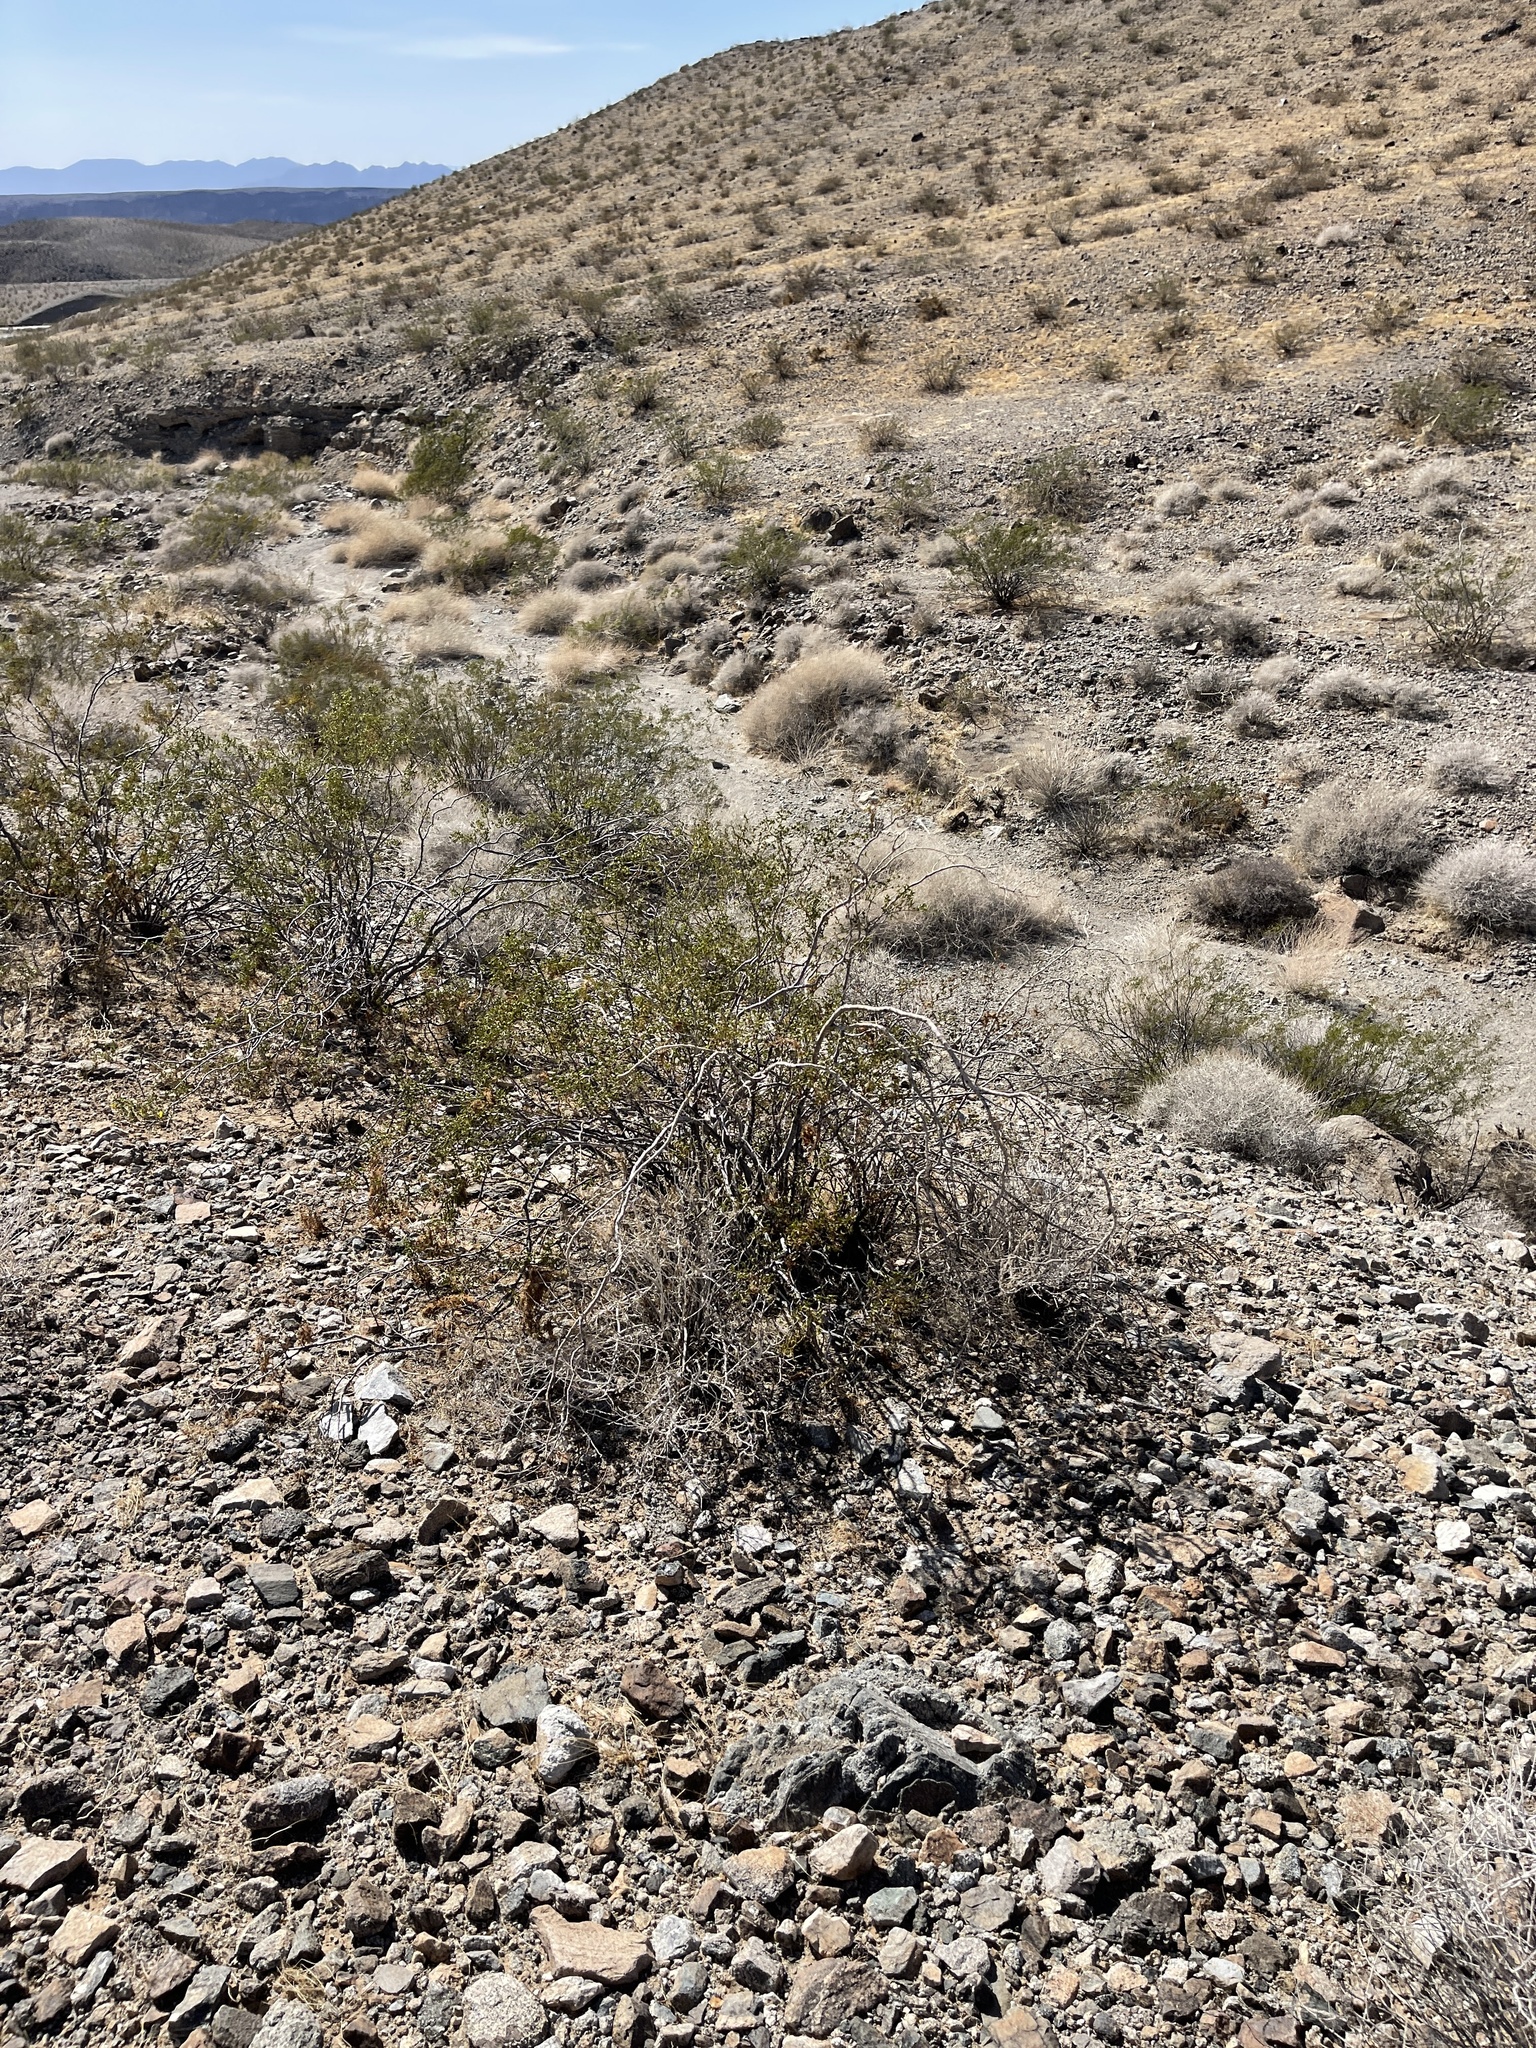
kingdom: Plantae
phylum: Tracheophyta
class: Magnoliopsida
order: Zygophyllales
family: Zygophyllaceae
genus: Larrea
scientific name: Larrea tridentata
